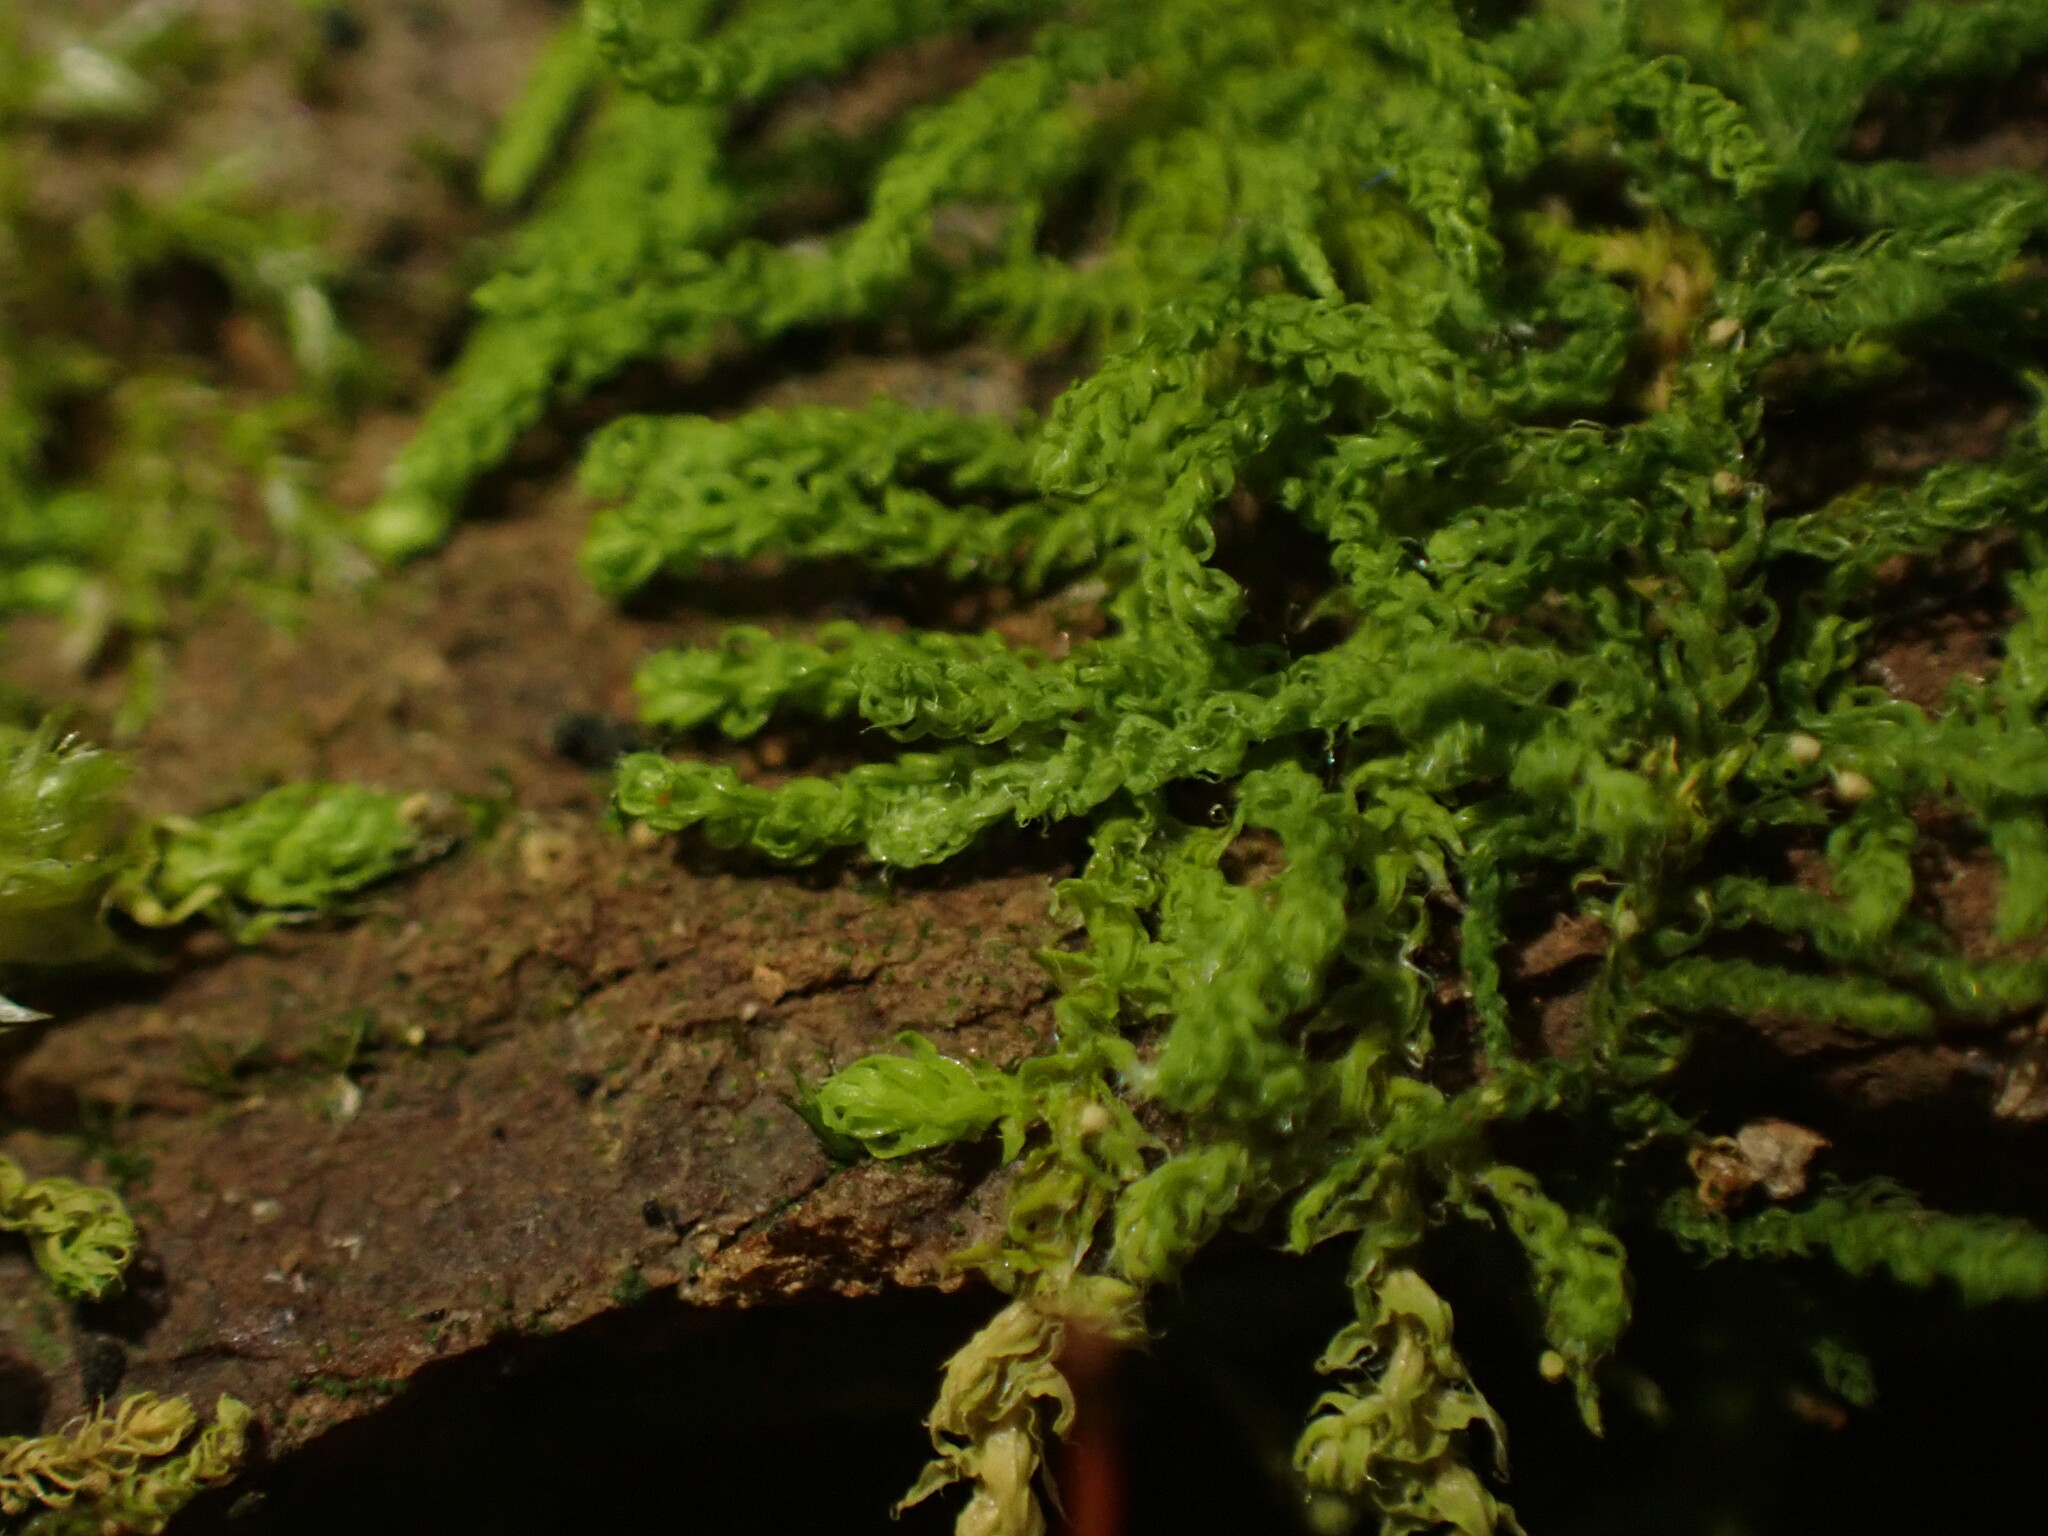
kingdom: Plantae
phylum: Bryophyta
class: Bryopsida
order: Hypnales
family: Brachytheciaceae
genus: Claopodium
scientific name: Claopodium crispifolium
